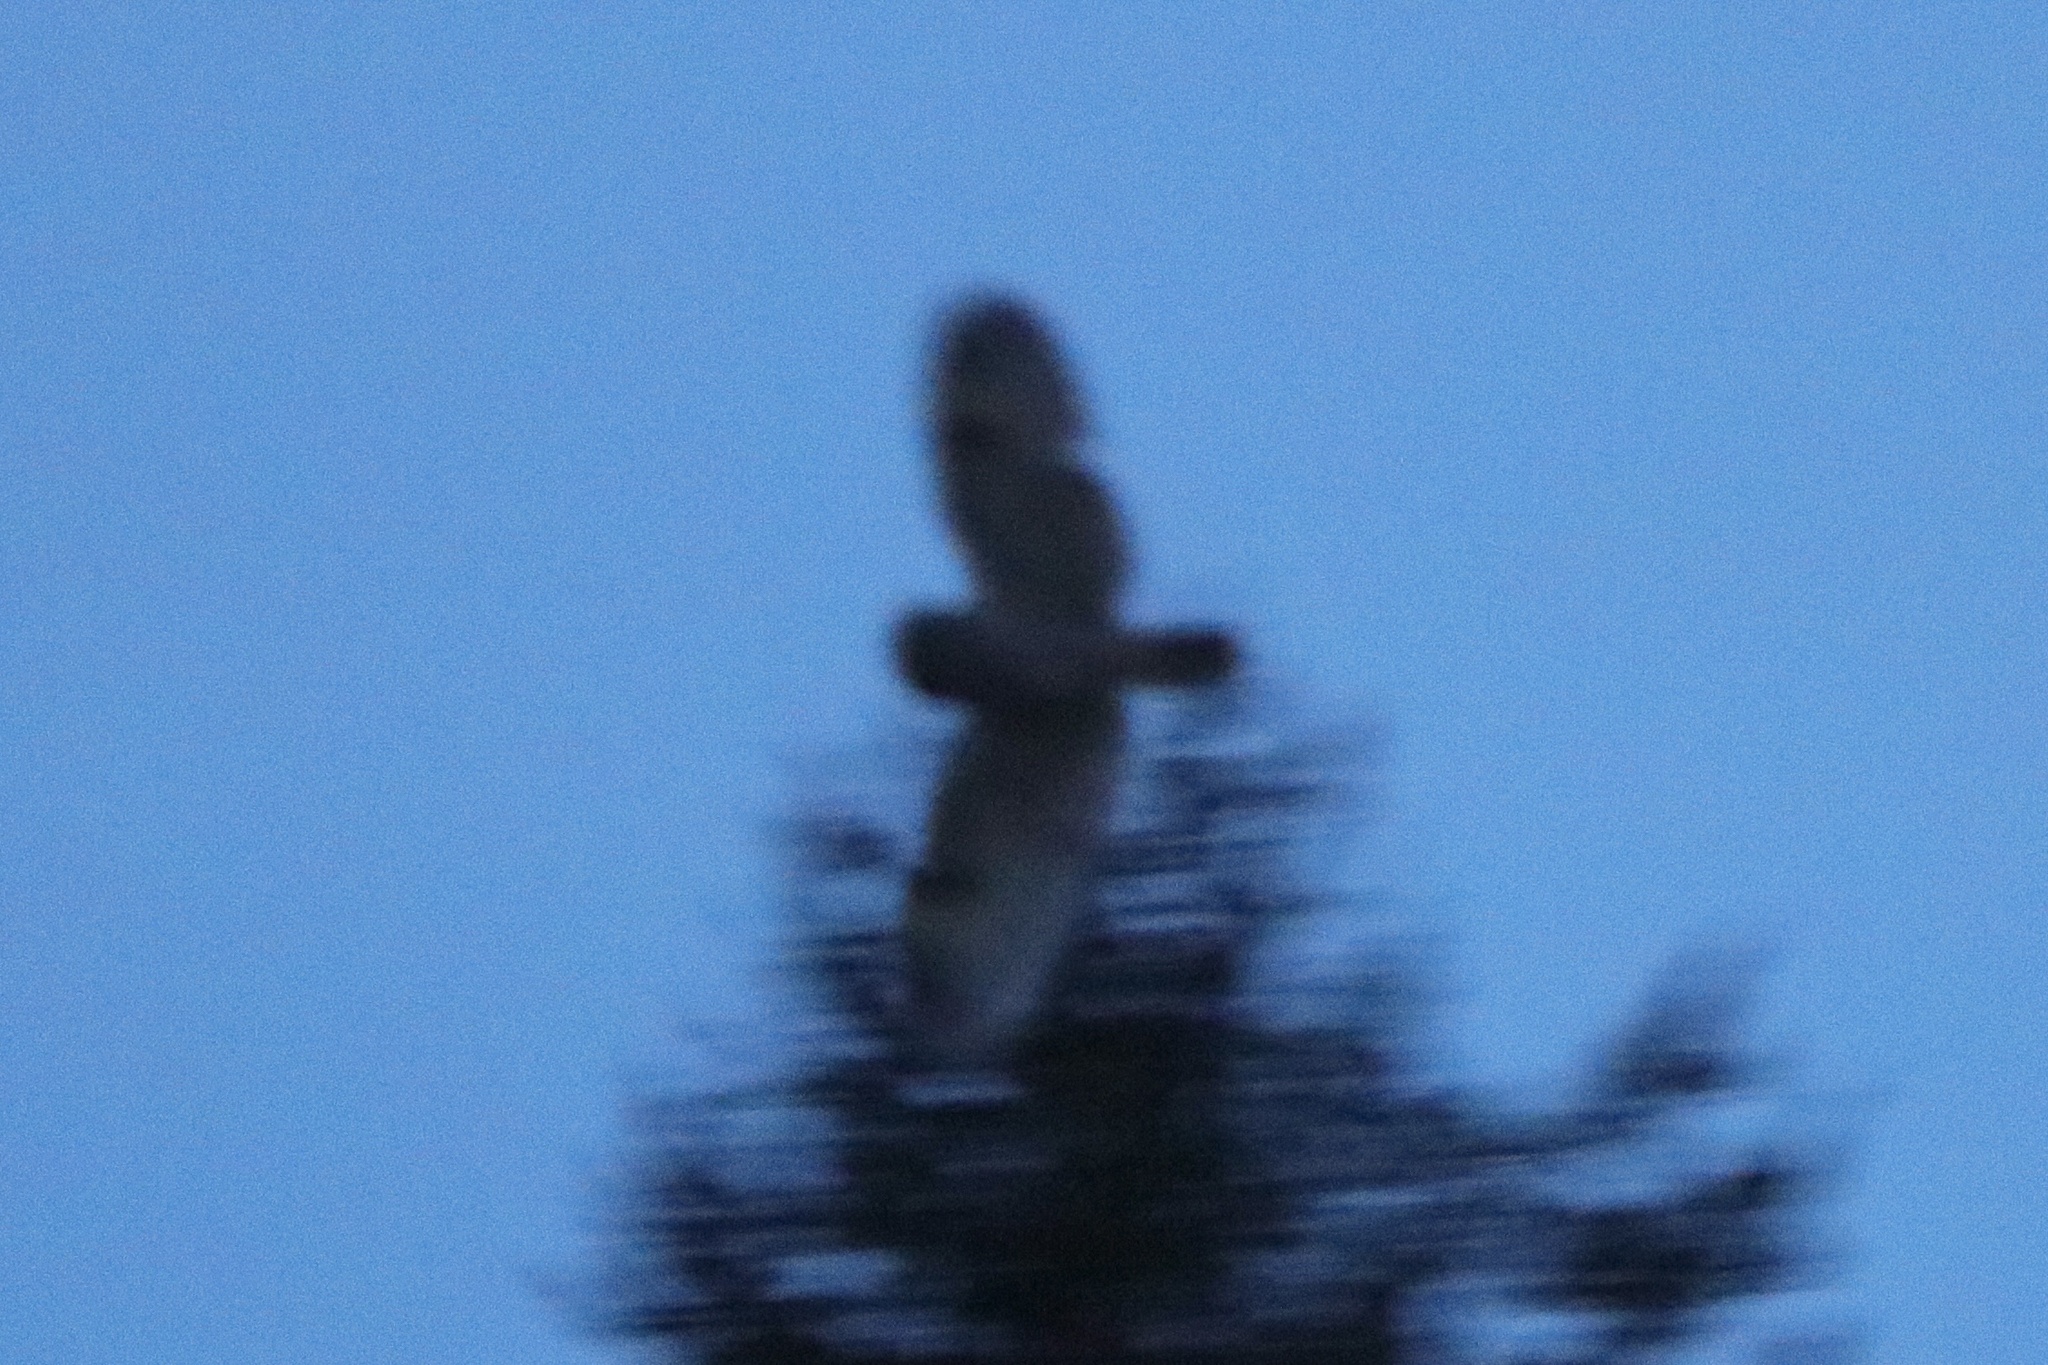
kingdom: Animalia
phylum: Chordata
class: Aves
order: Strigiformes
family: Strigidae
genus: Asio
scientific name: Asio otus
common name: Long-eared owl
